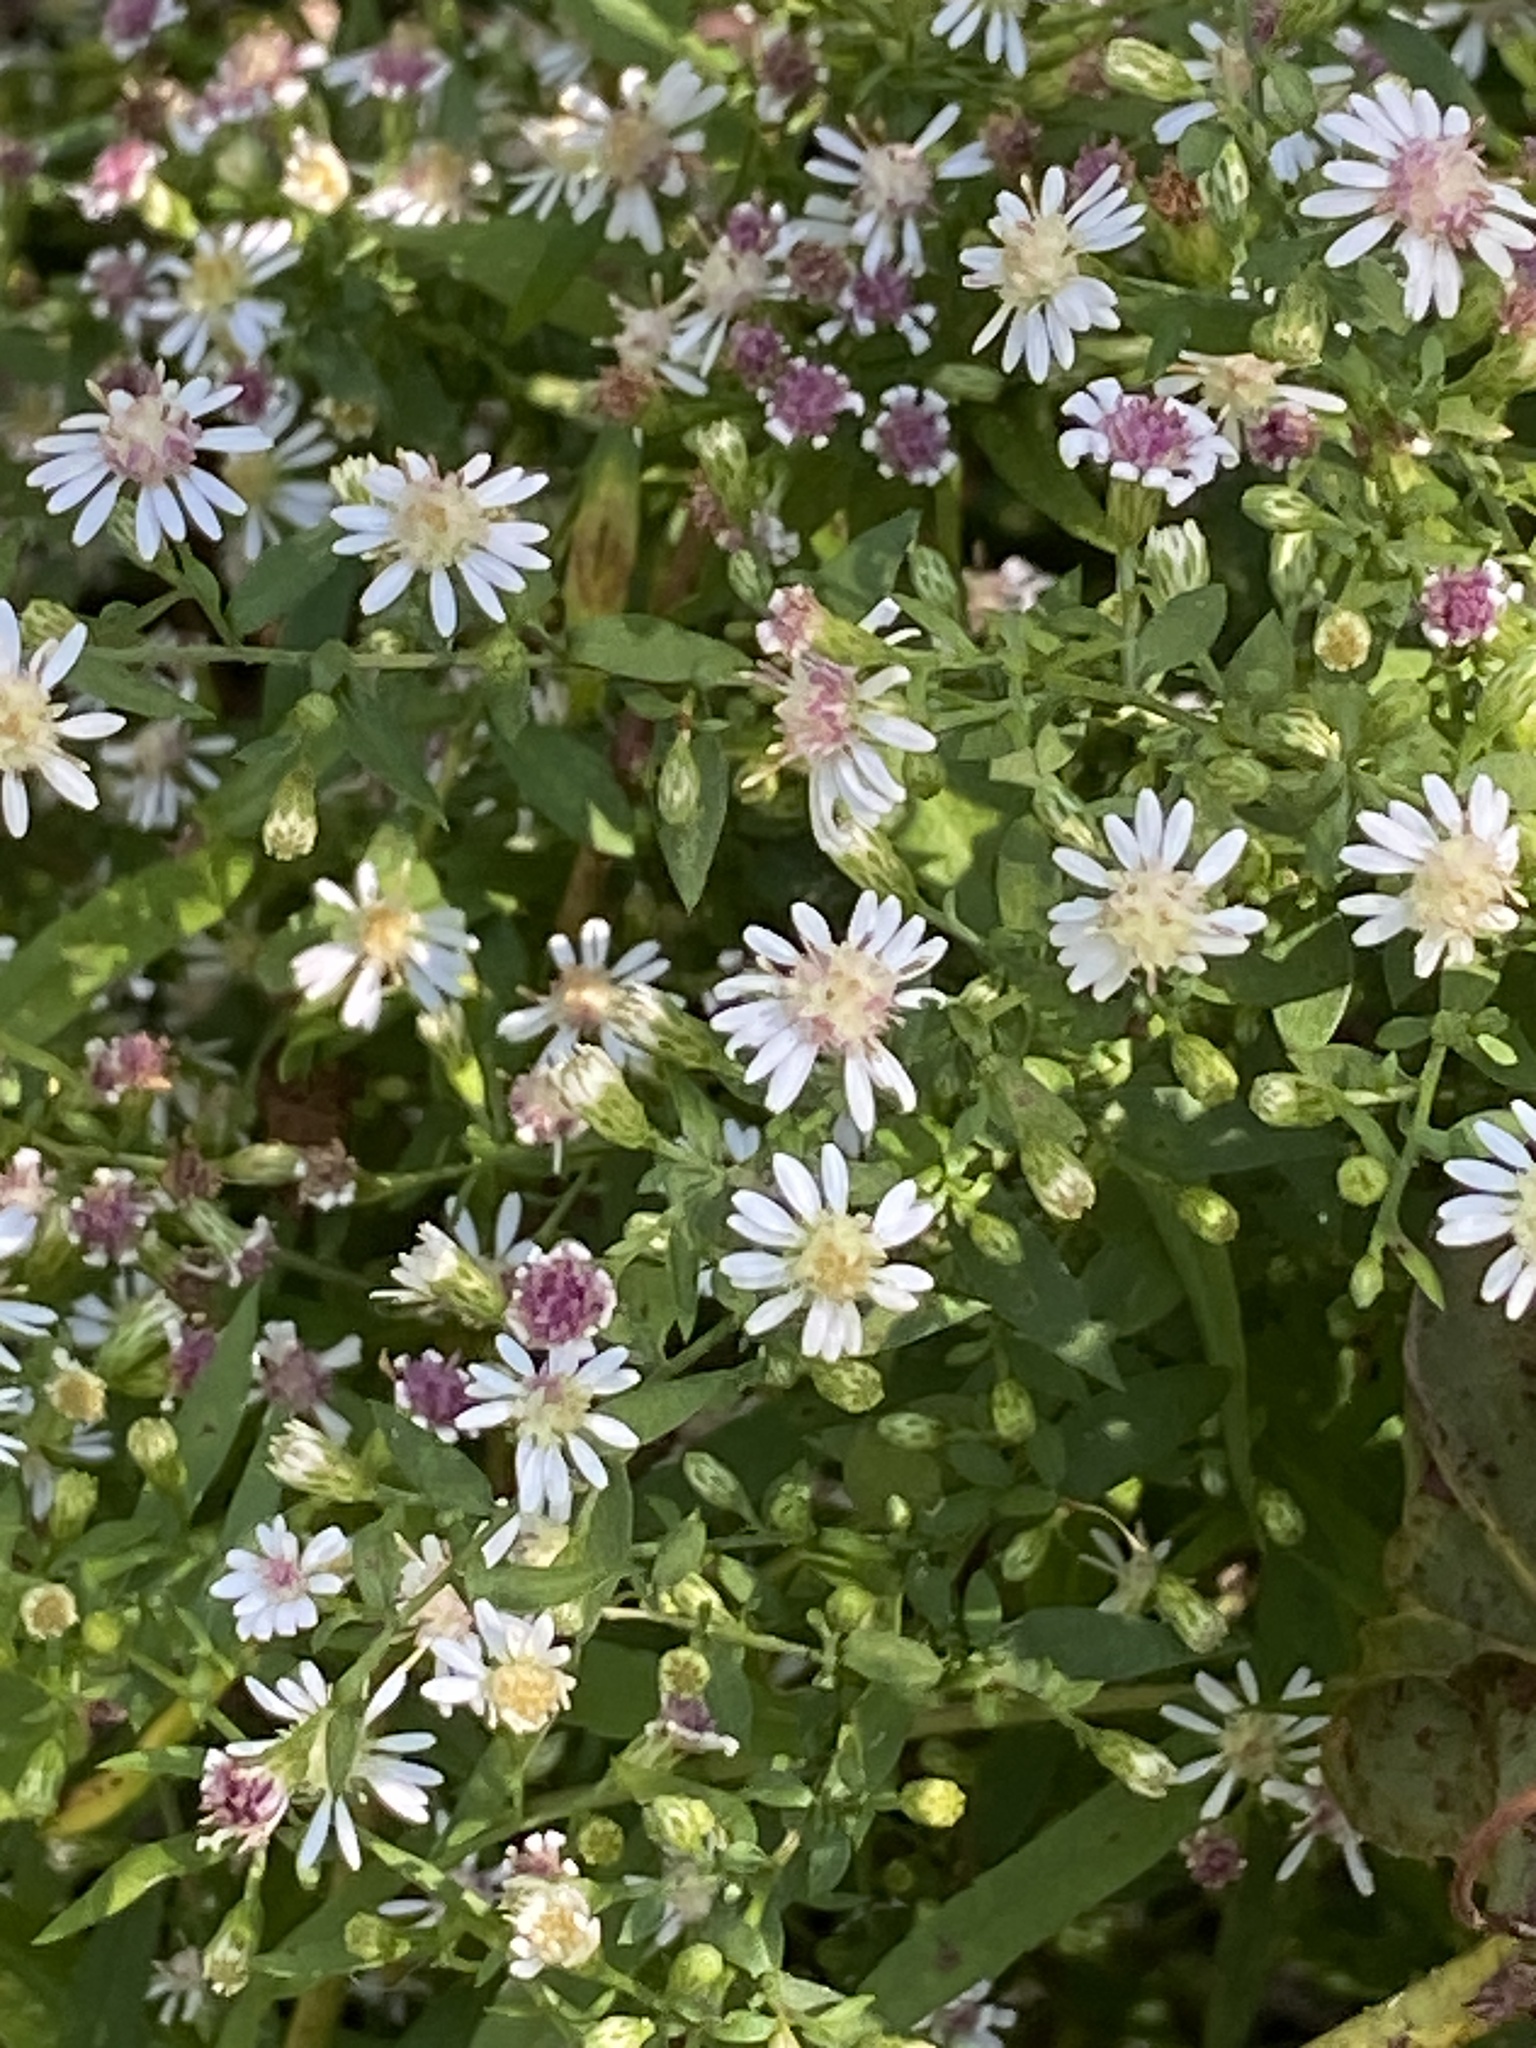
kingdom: Plantae
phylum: Tracheophyta
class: Magnoliopsida
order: Asterales
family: Asteraceae
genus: Symphyotrichum
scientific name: Symphyotrichum lateriflorum
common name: Calico aster
